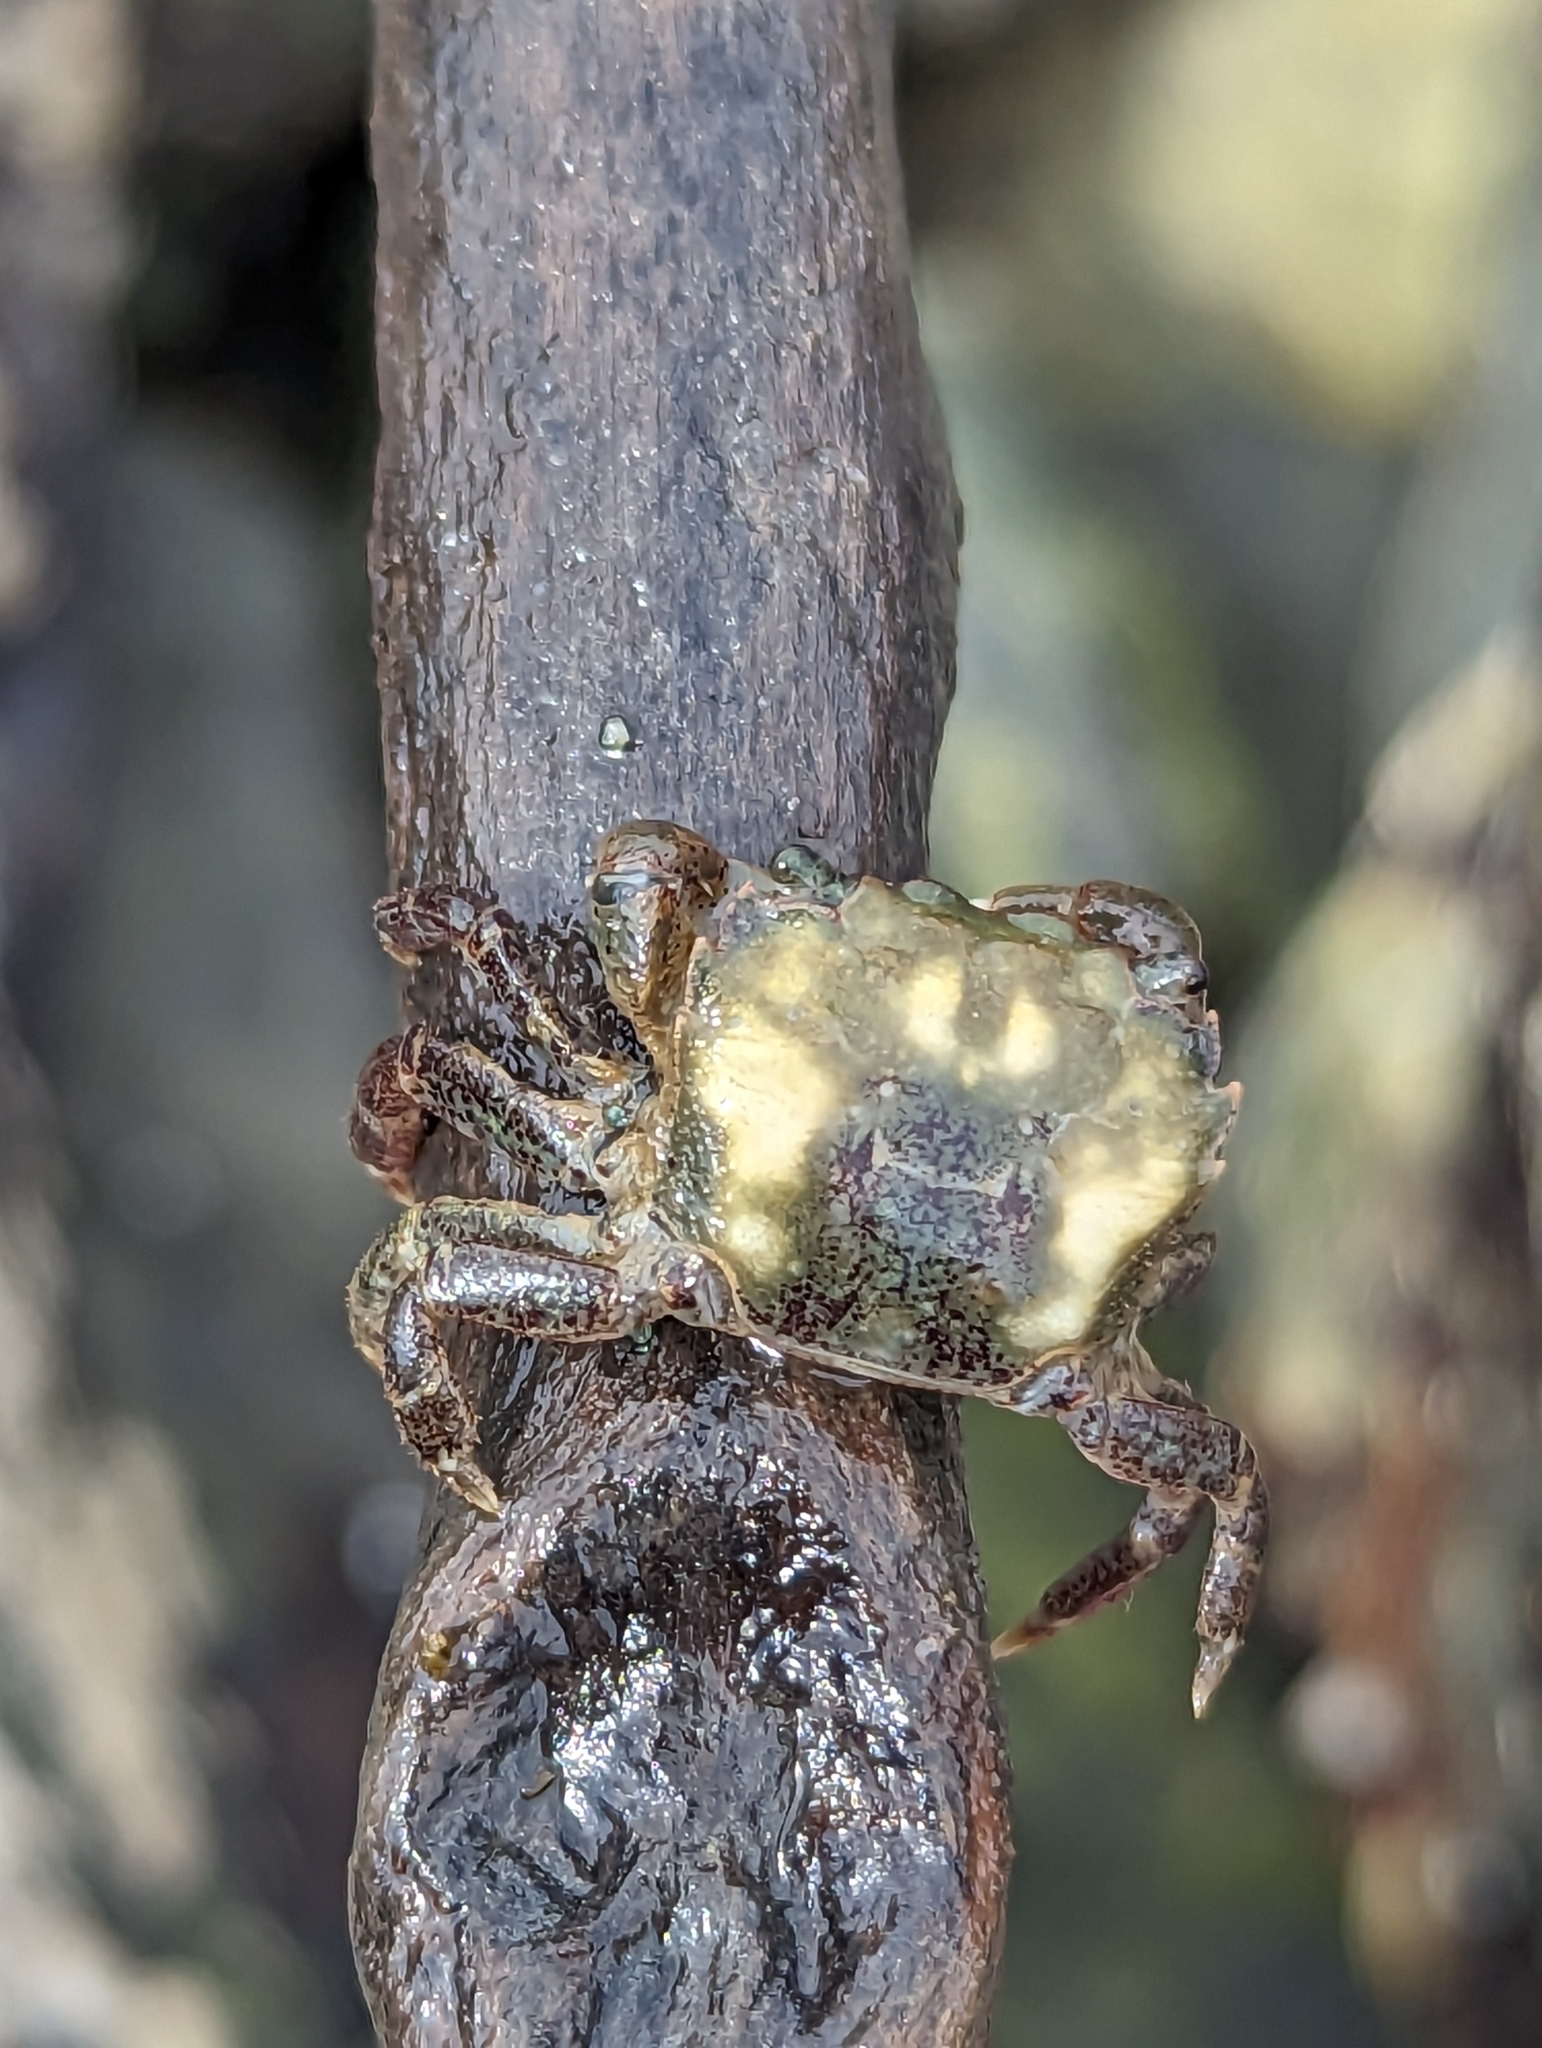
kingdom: Animalia
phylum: Arthropoda
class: Malacostraca
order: Decapoda
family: Varunidae
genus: Hemigrapsus
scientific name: Hemigrapsus oregonensis
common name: Yellow shore crab
